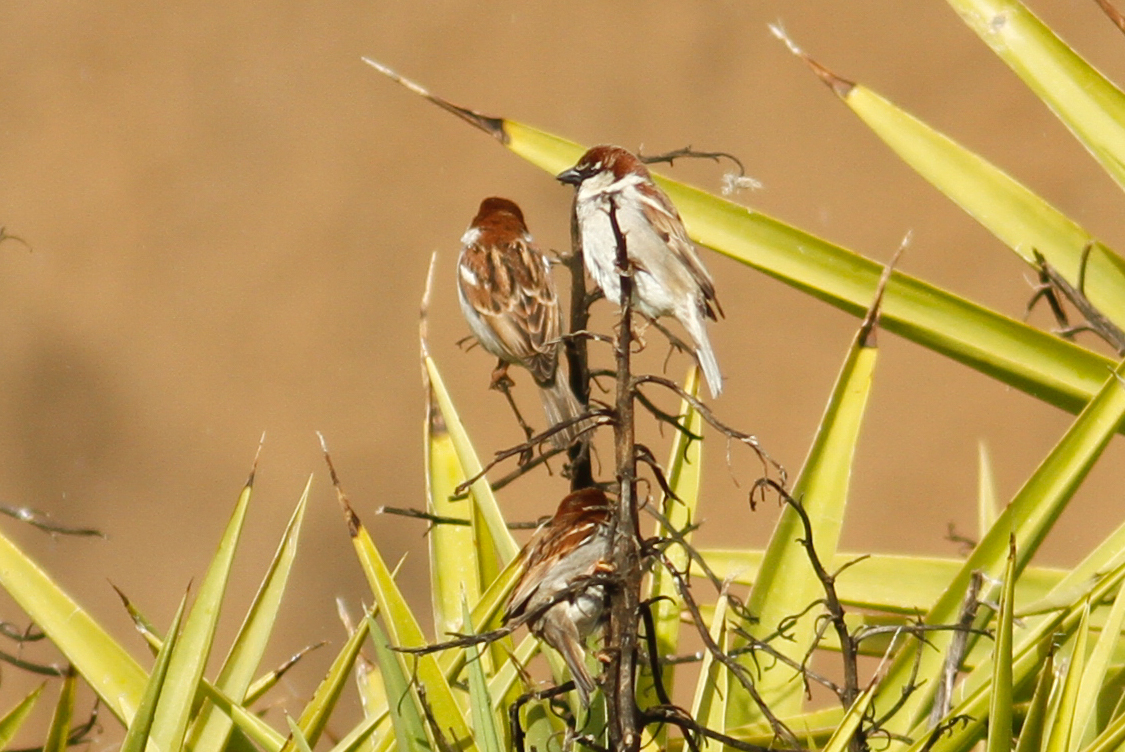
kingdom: Animalia
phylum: Chordata
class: Aves
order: Passeriformes
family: Passeridae
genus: Passer
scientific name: Passer italiae
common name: Italian sparrow
